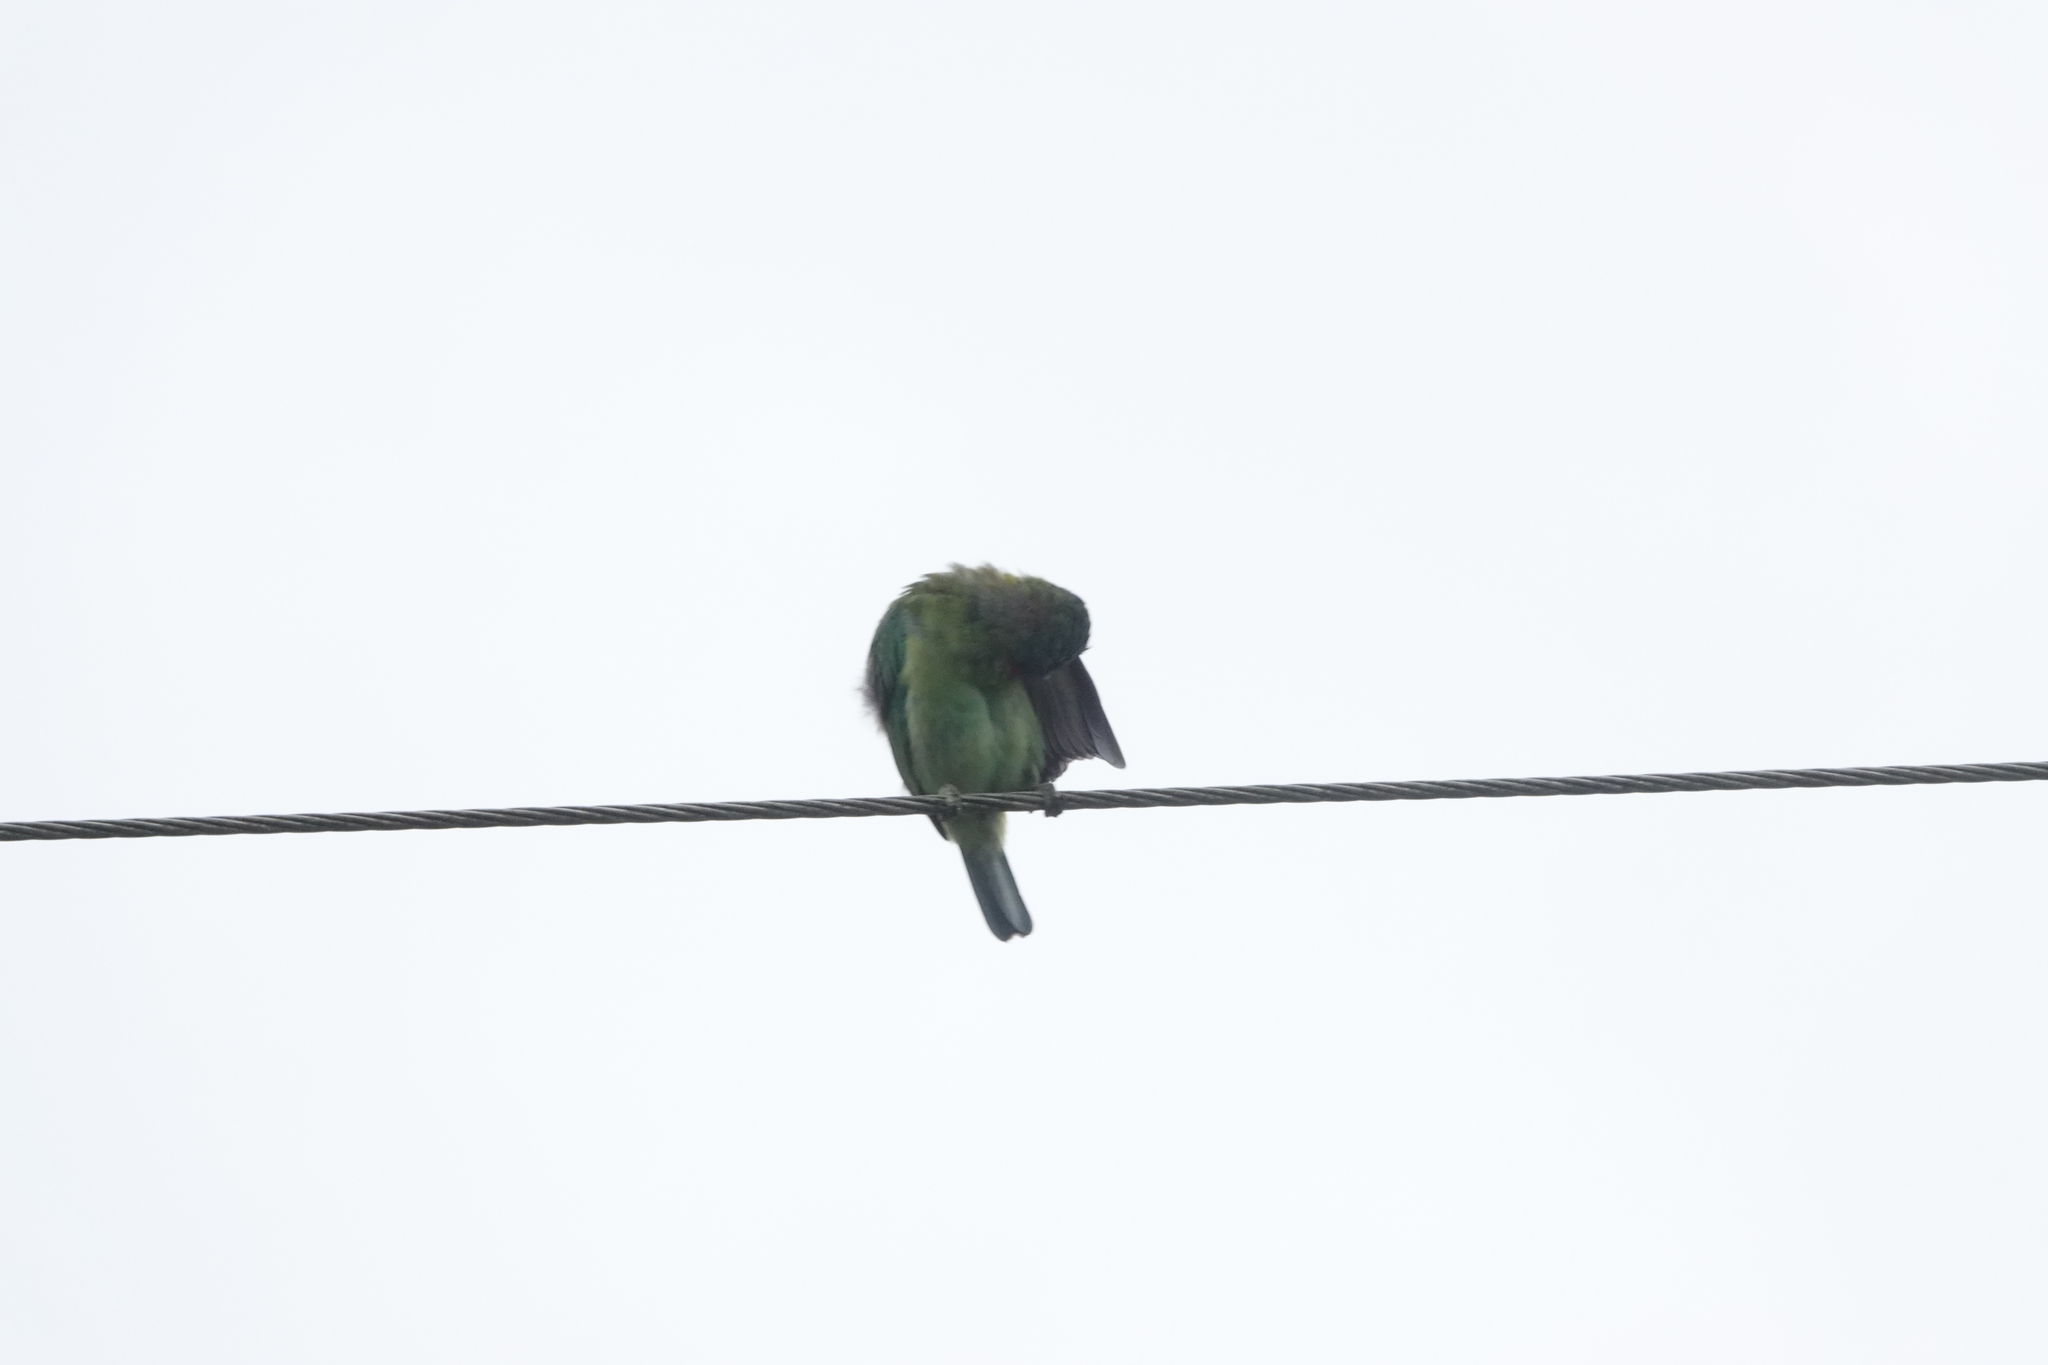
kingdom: Animalia
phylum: Chordata
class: Aves
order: Piciformes
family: Megalaimidae
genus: Psilopogon
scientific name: Psilopogon nuchalis
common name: Taiwan barbet
